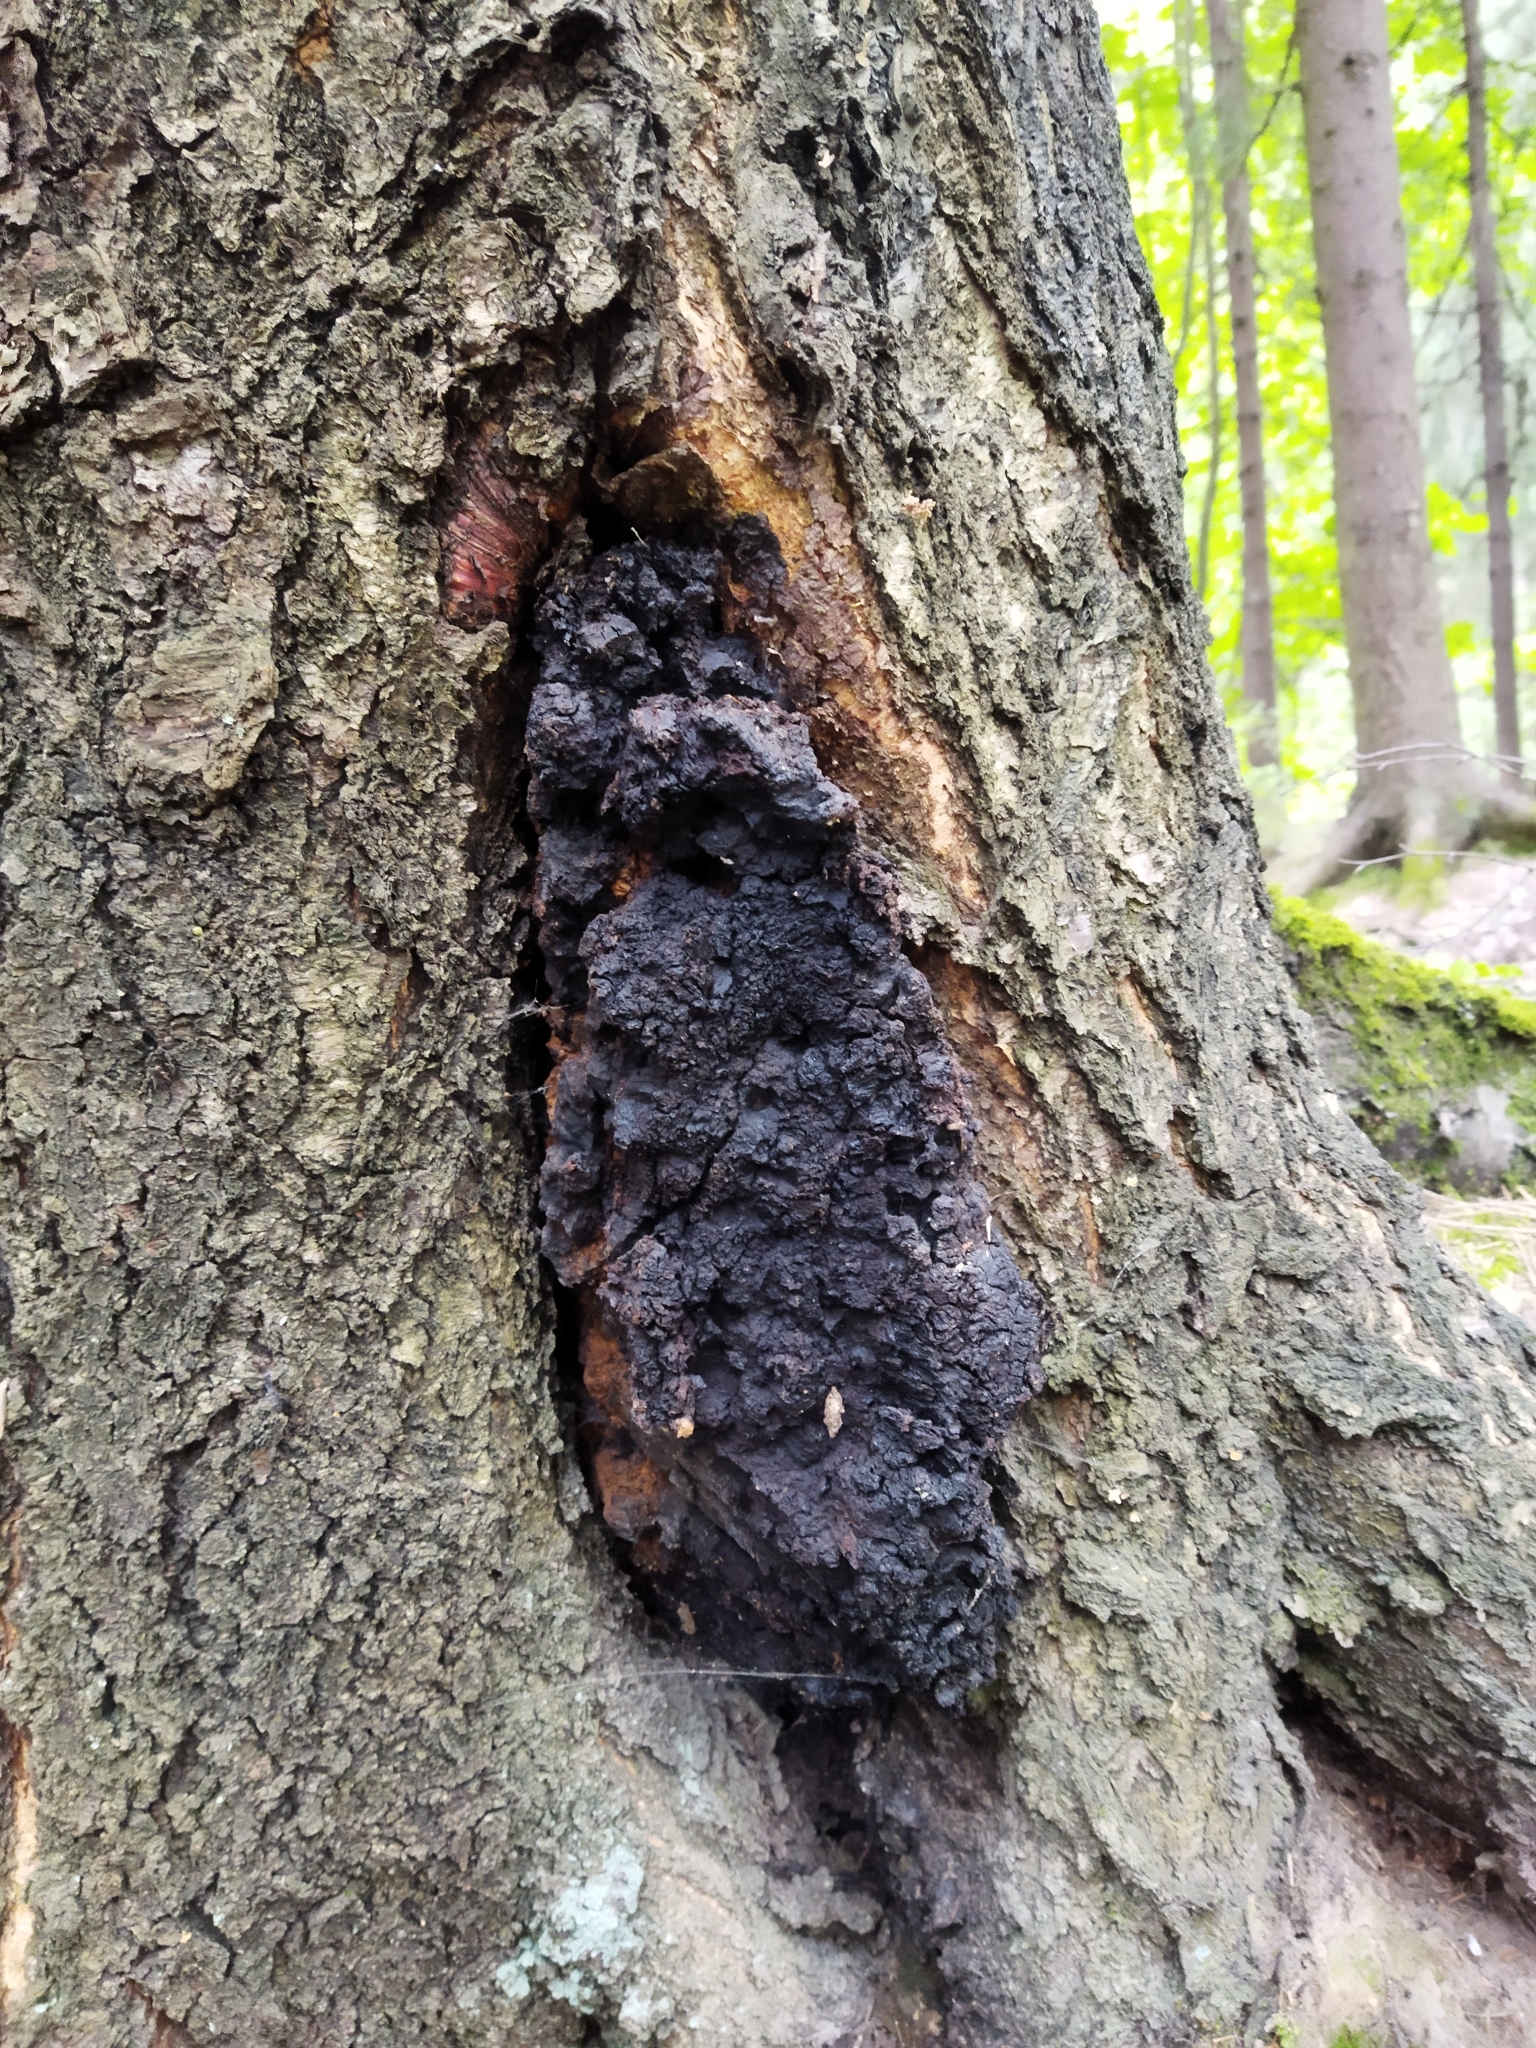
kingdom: Fungi
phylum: Basidiomycota
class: Agaricomycetes
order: Hymenochaetales
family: Hymenochaetaceae
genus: Inonotus
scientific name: Inonotus obliquus
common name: Chaga
